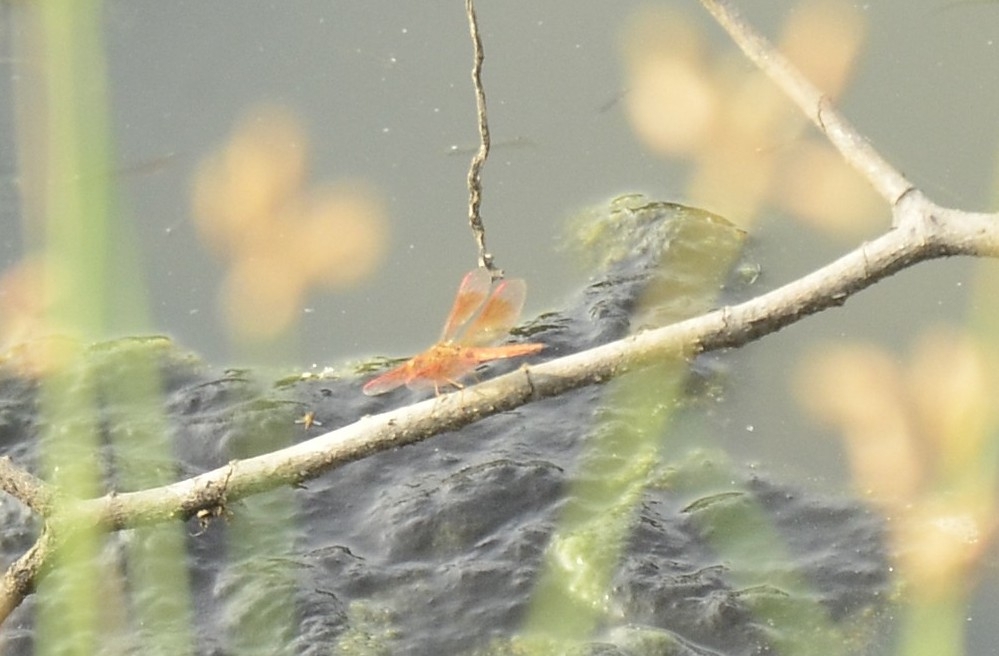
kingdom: Animalia
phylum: Arthropoda
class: Insecta
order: Odonata
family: Libellulidae
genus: Brachythemis
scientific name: Brachythemis contaminata
